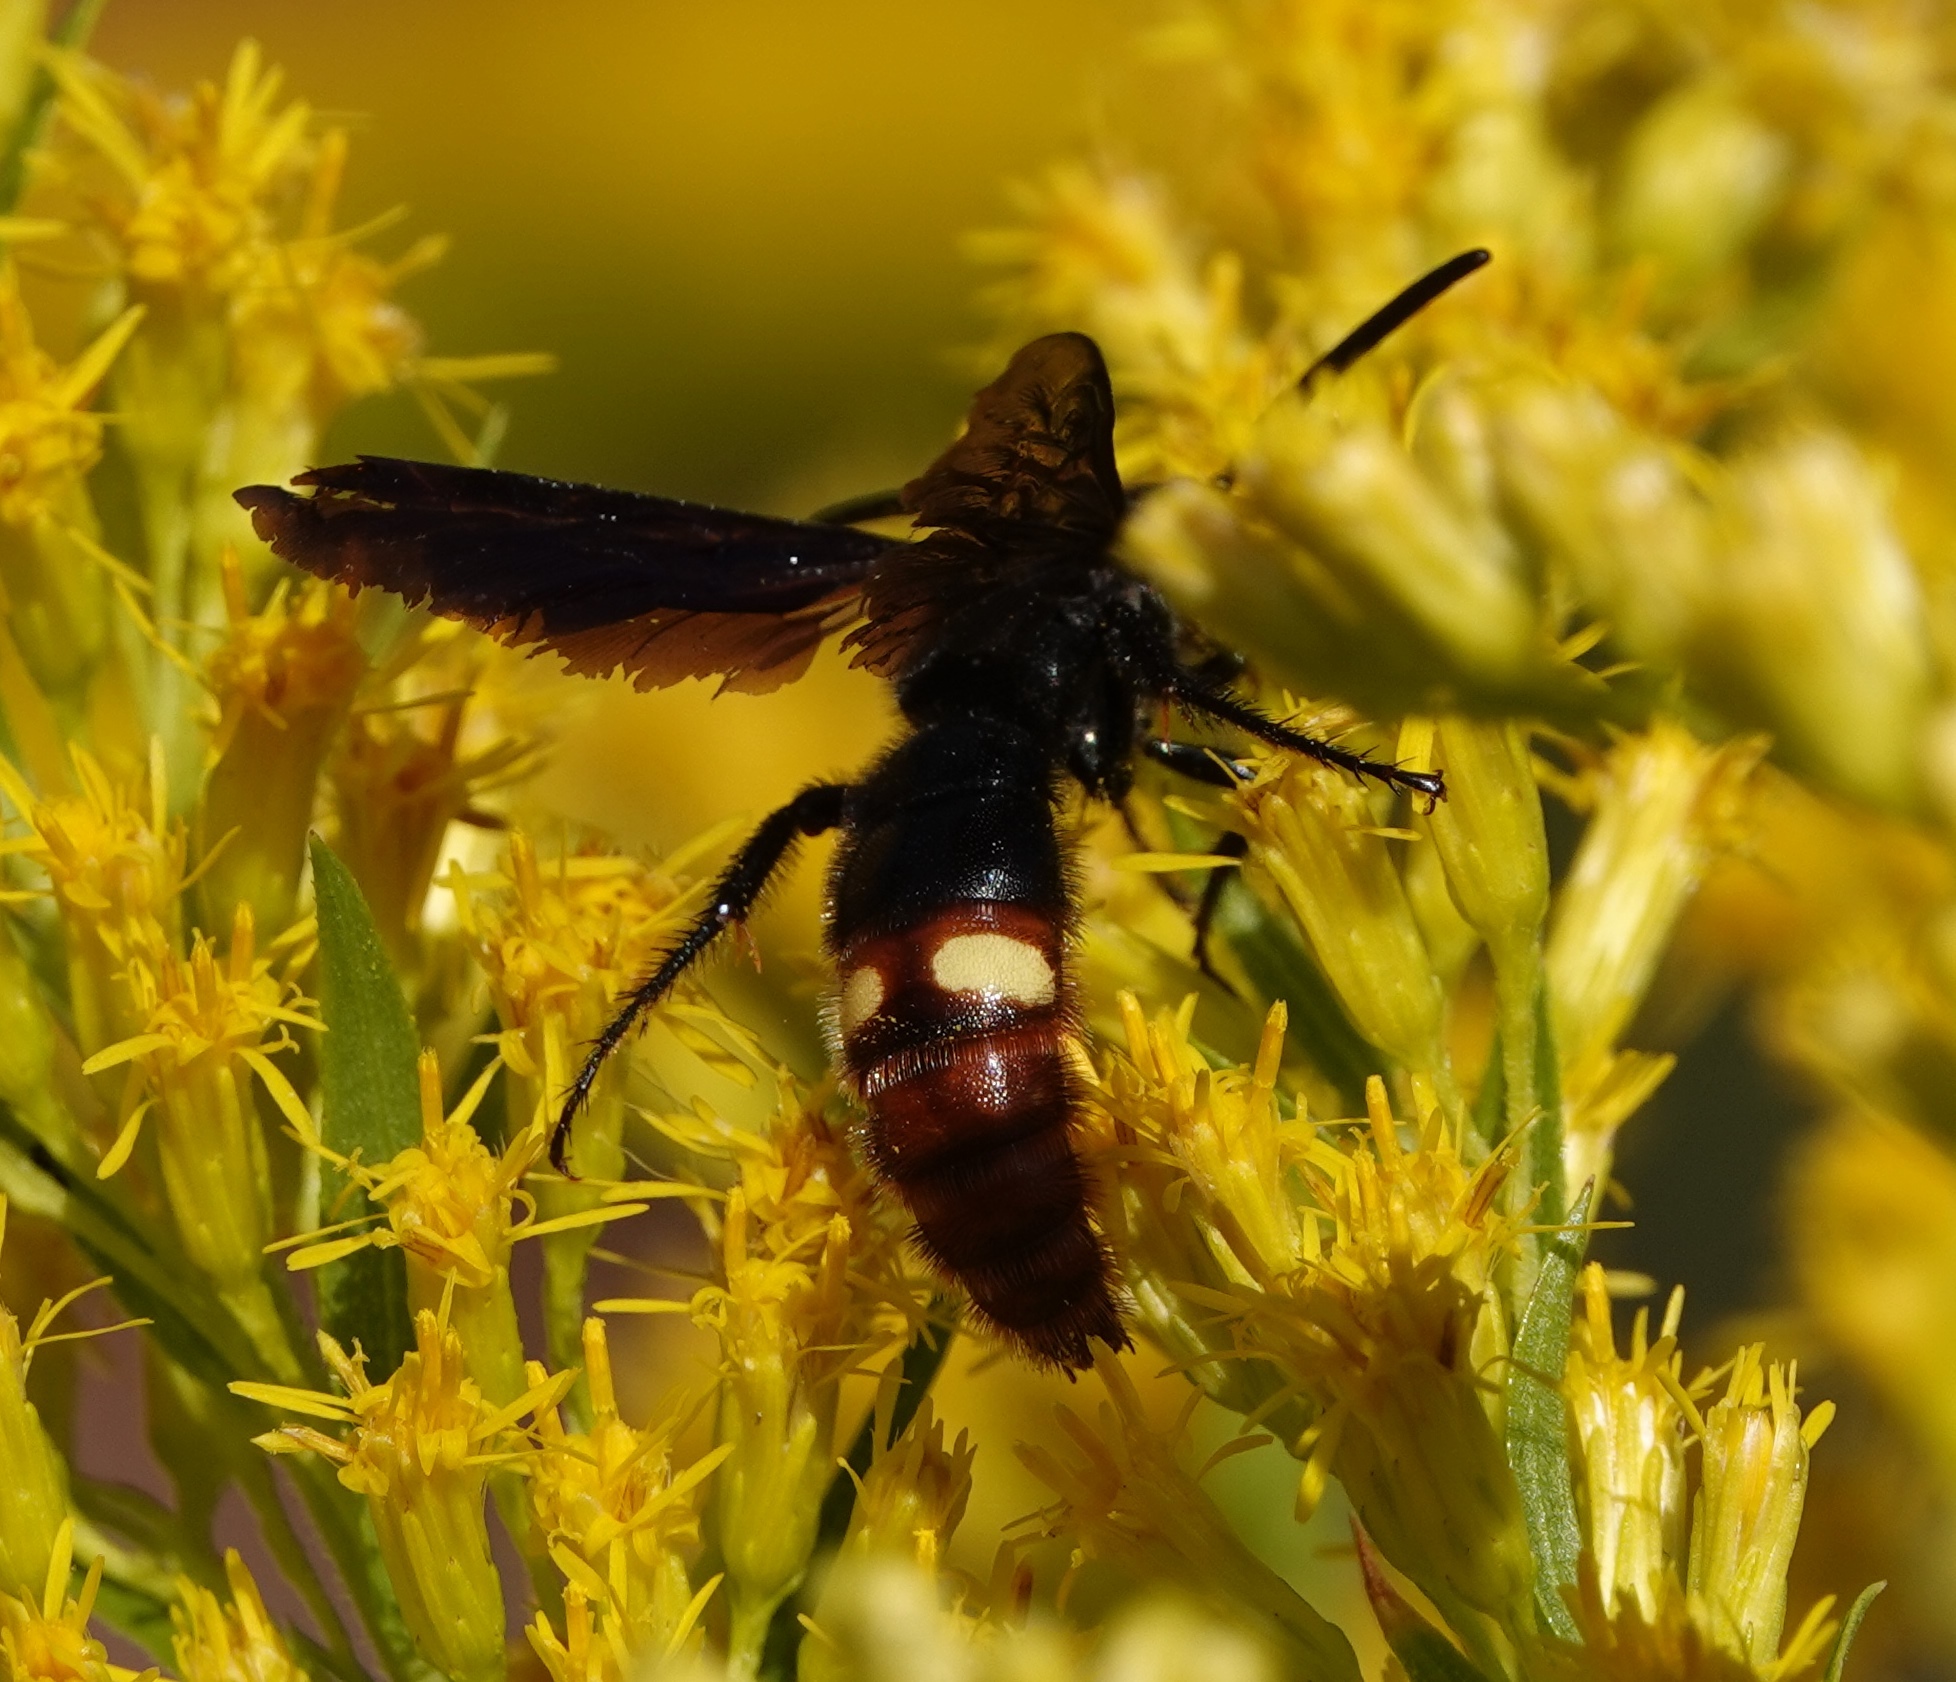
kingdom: Animalia
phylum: Arthropoda
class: Insecta
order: Hymenoptera
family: Scoliidae
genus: Scolia
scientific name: Scolia dubia
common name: Blue-winged scoliid wasp
